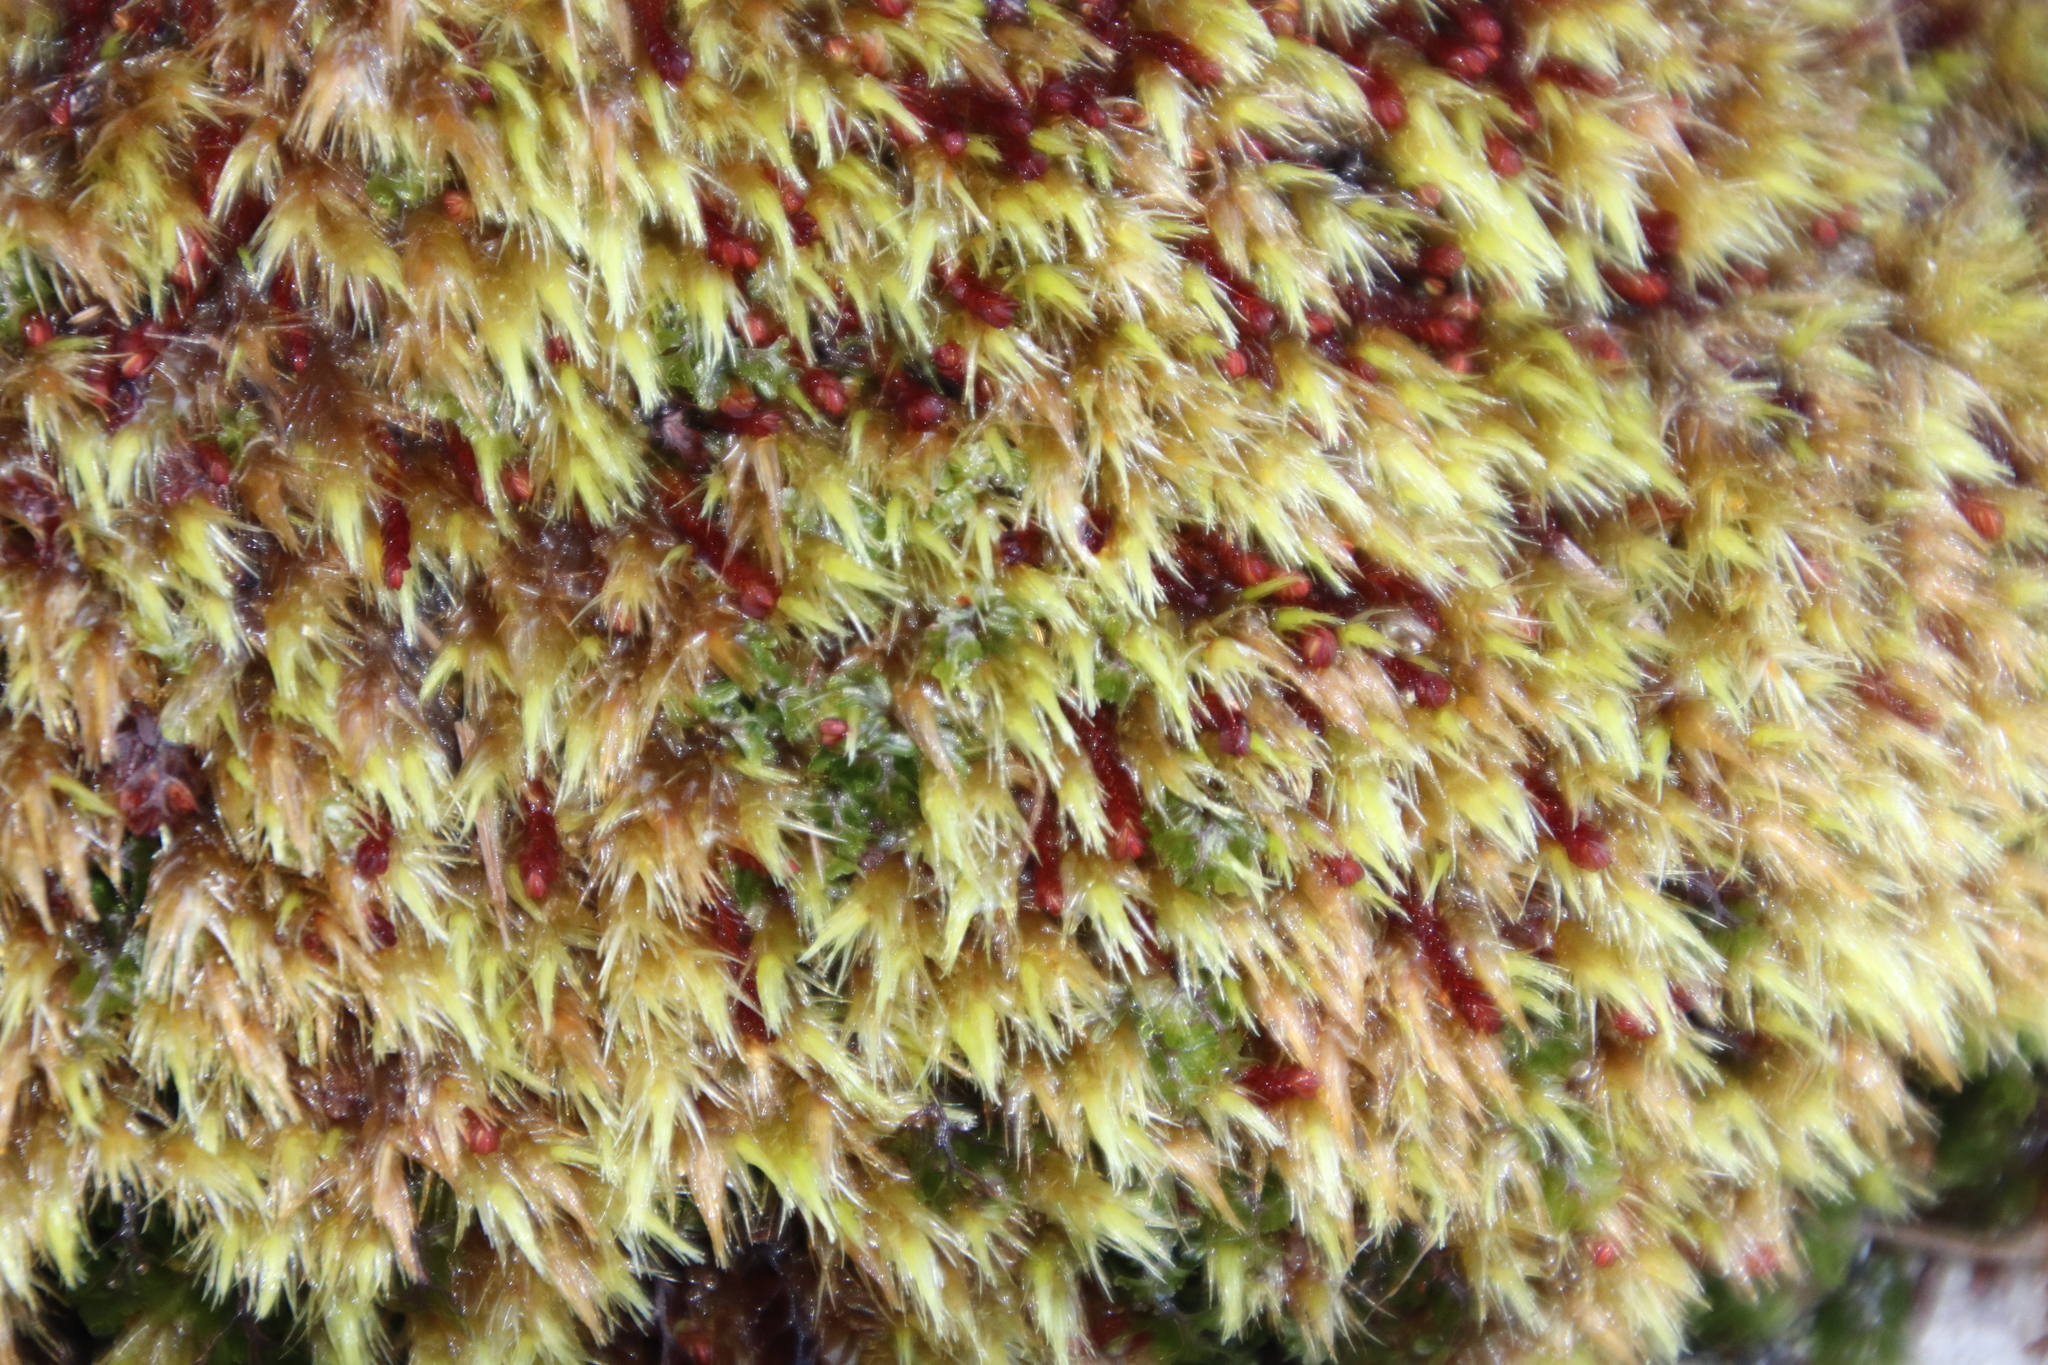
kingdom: Plantae
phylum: Bryophyta
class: Bryopsida
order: Dicranales
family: Dicranaceae
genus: Dicranoloma
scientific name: Dicranoloma billardieri
